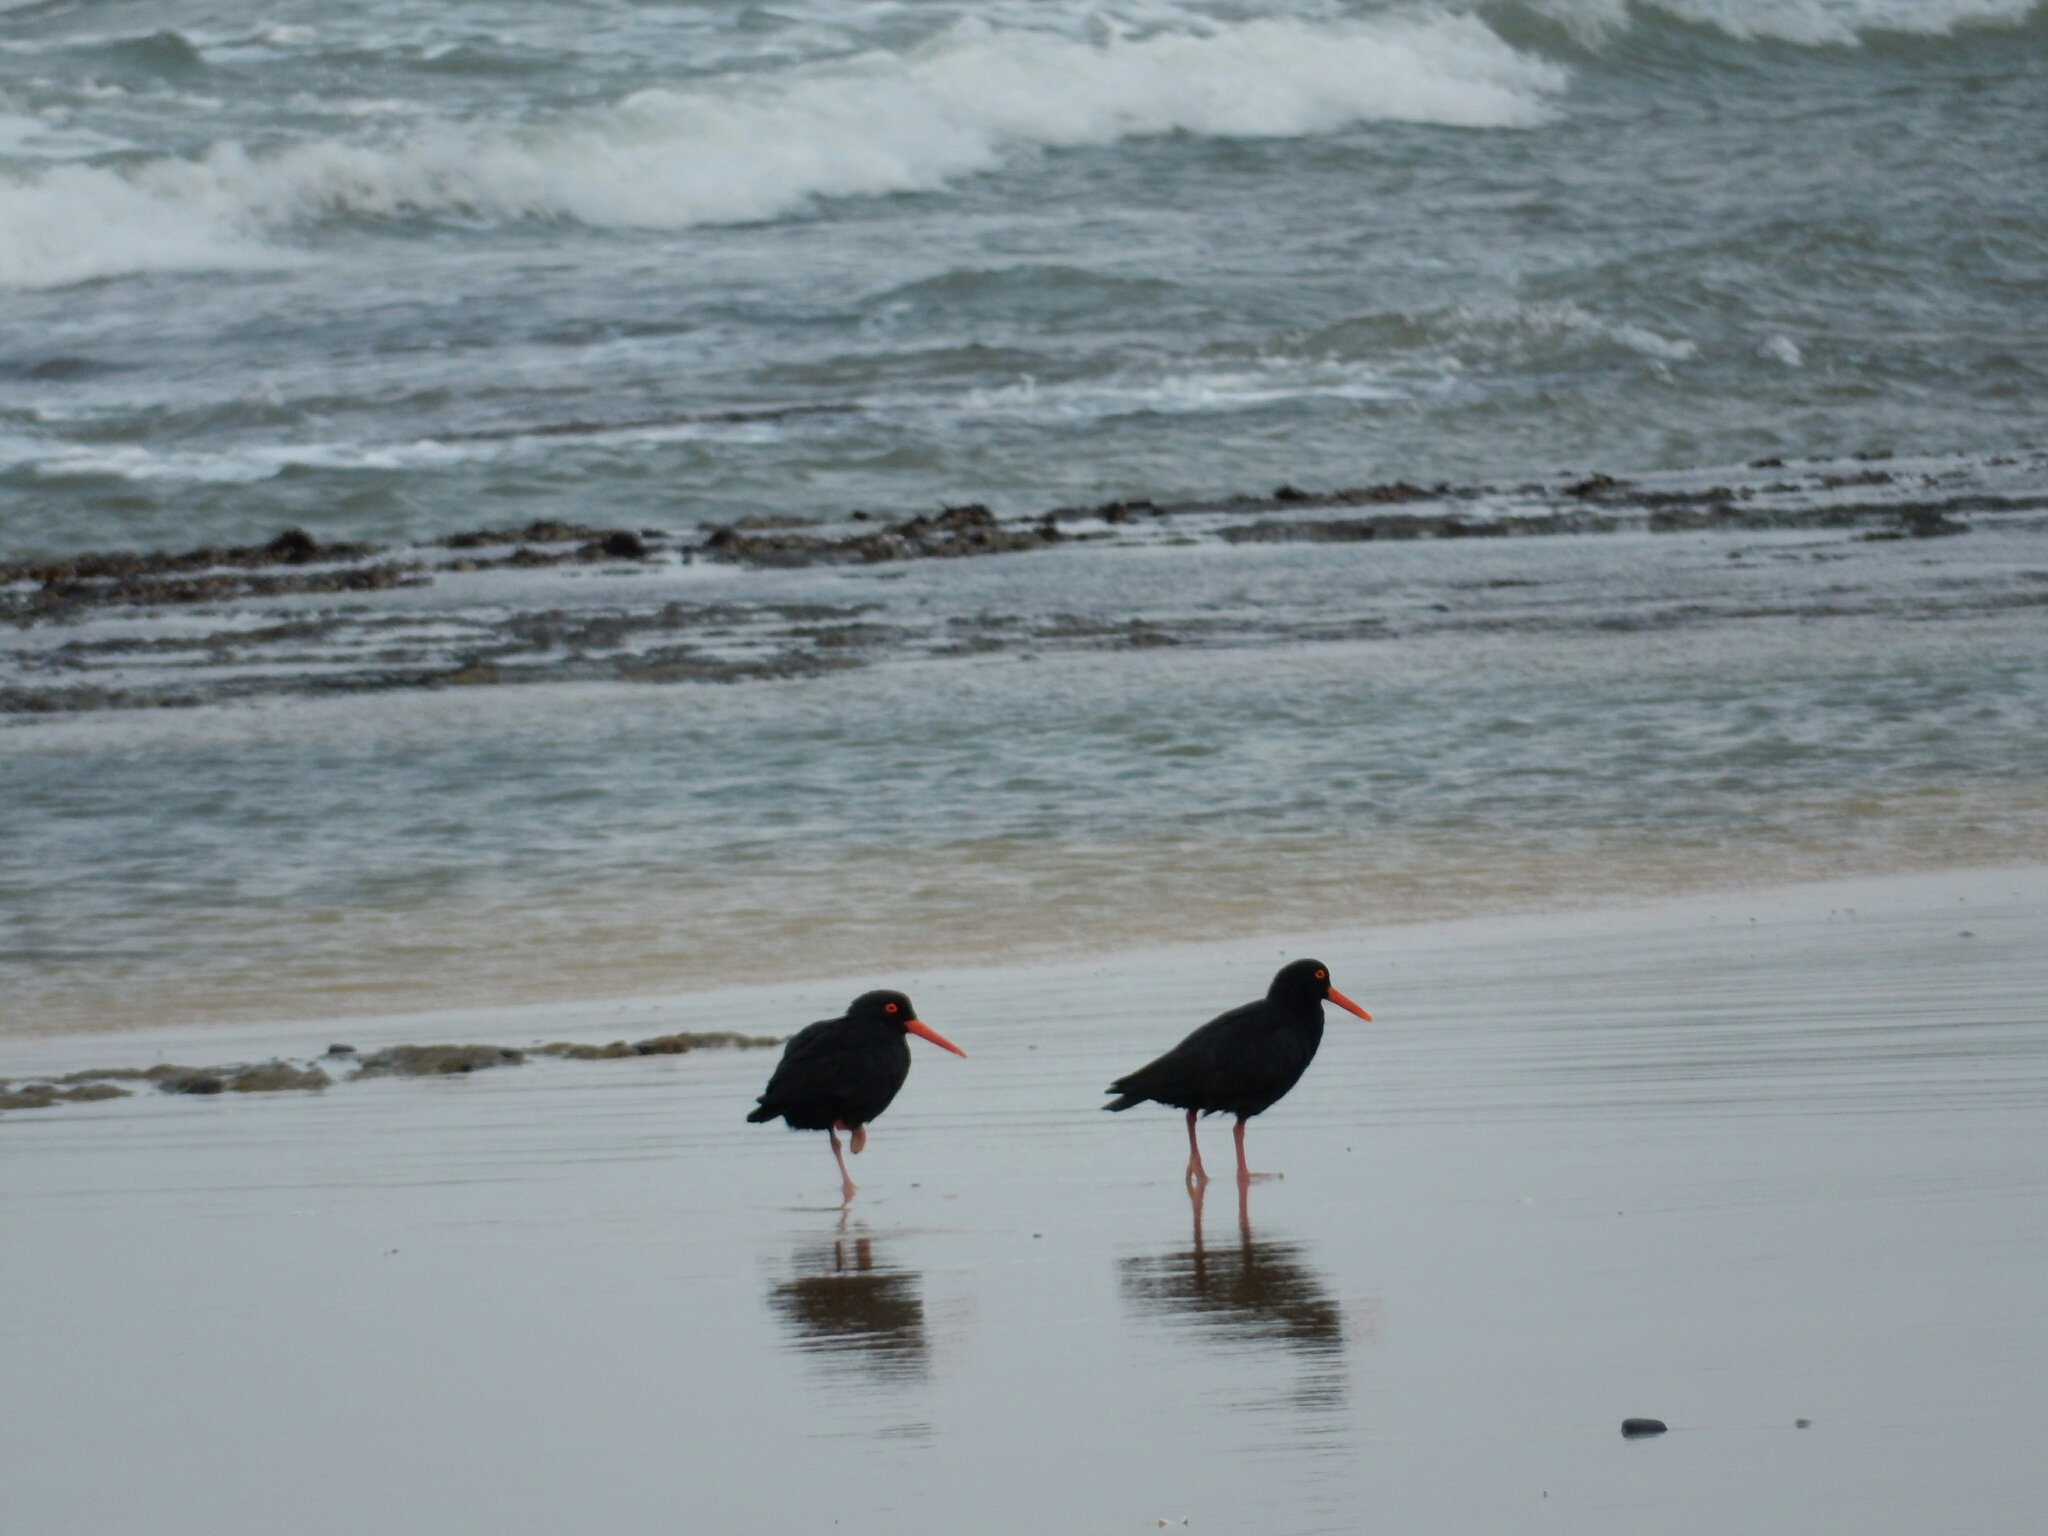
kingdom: Animalia
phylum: Chordata
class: Aves
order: Charadriiformes
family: Haematopodidae
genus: Haematopus
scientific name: Haematopus moquini
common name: African oystercatcher
